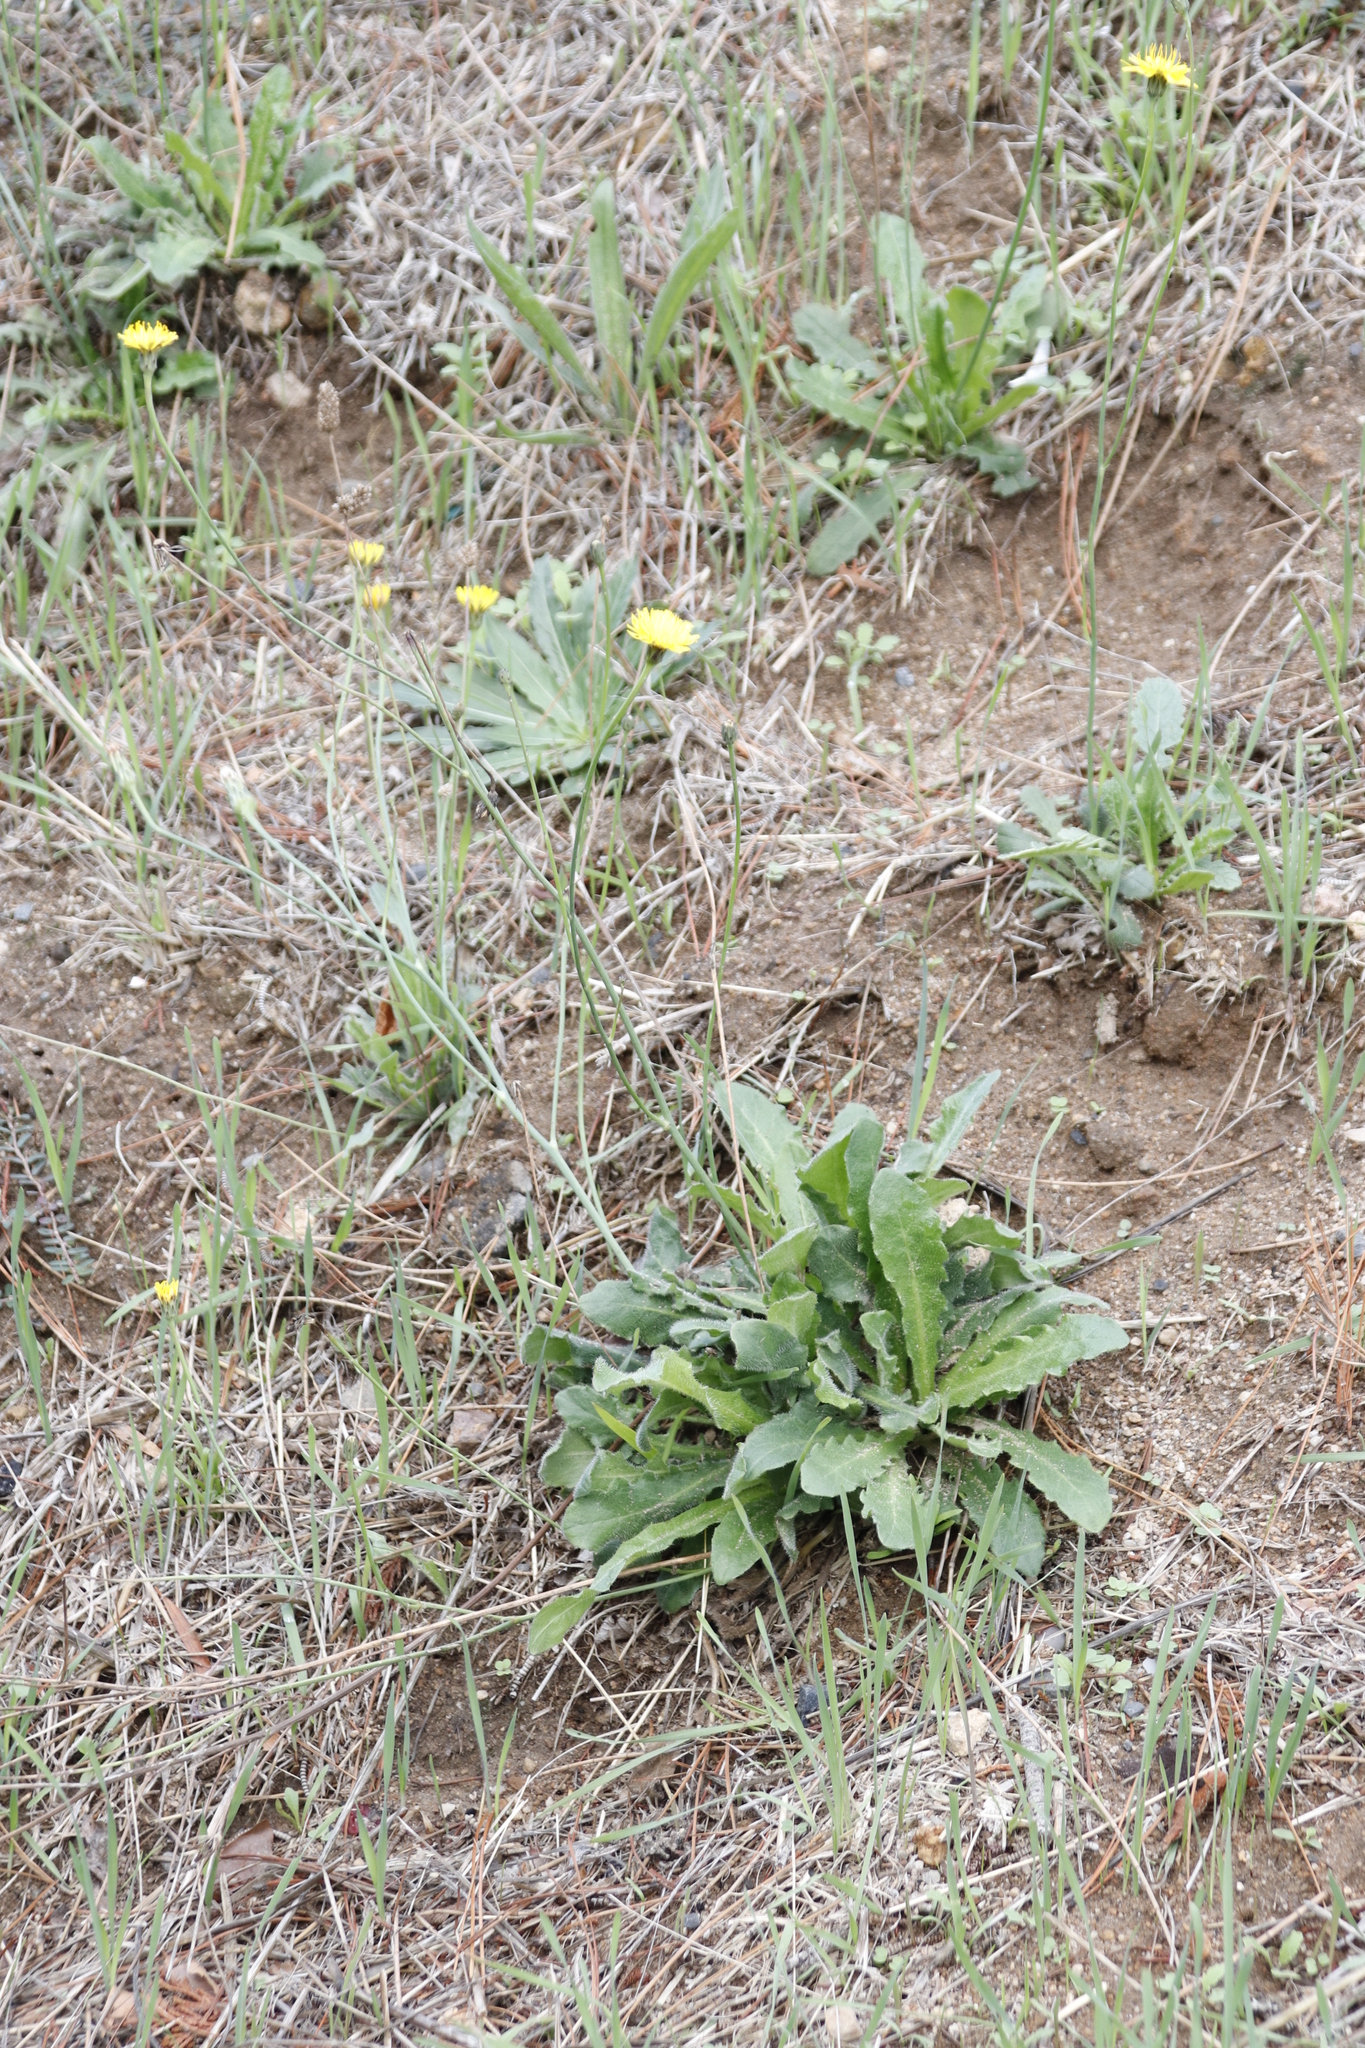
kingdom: Plantae
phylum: Tracheophyta
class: Magnoliopsida
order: Asterales
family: Asteraceae
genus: Hypochaeris
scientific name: Hypochaeris radicata
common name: Flatweed
